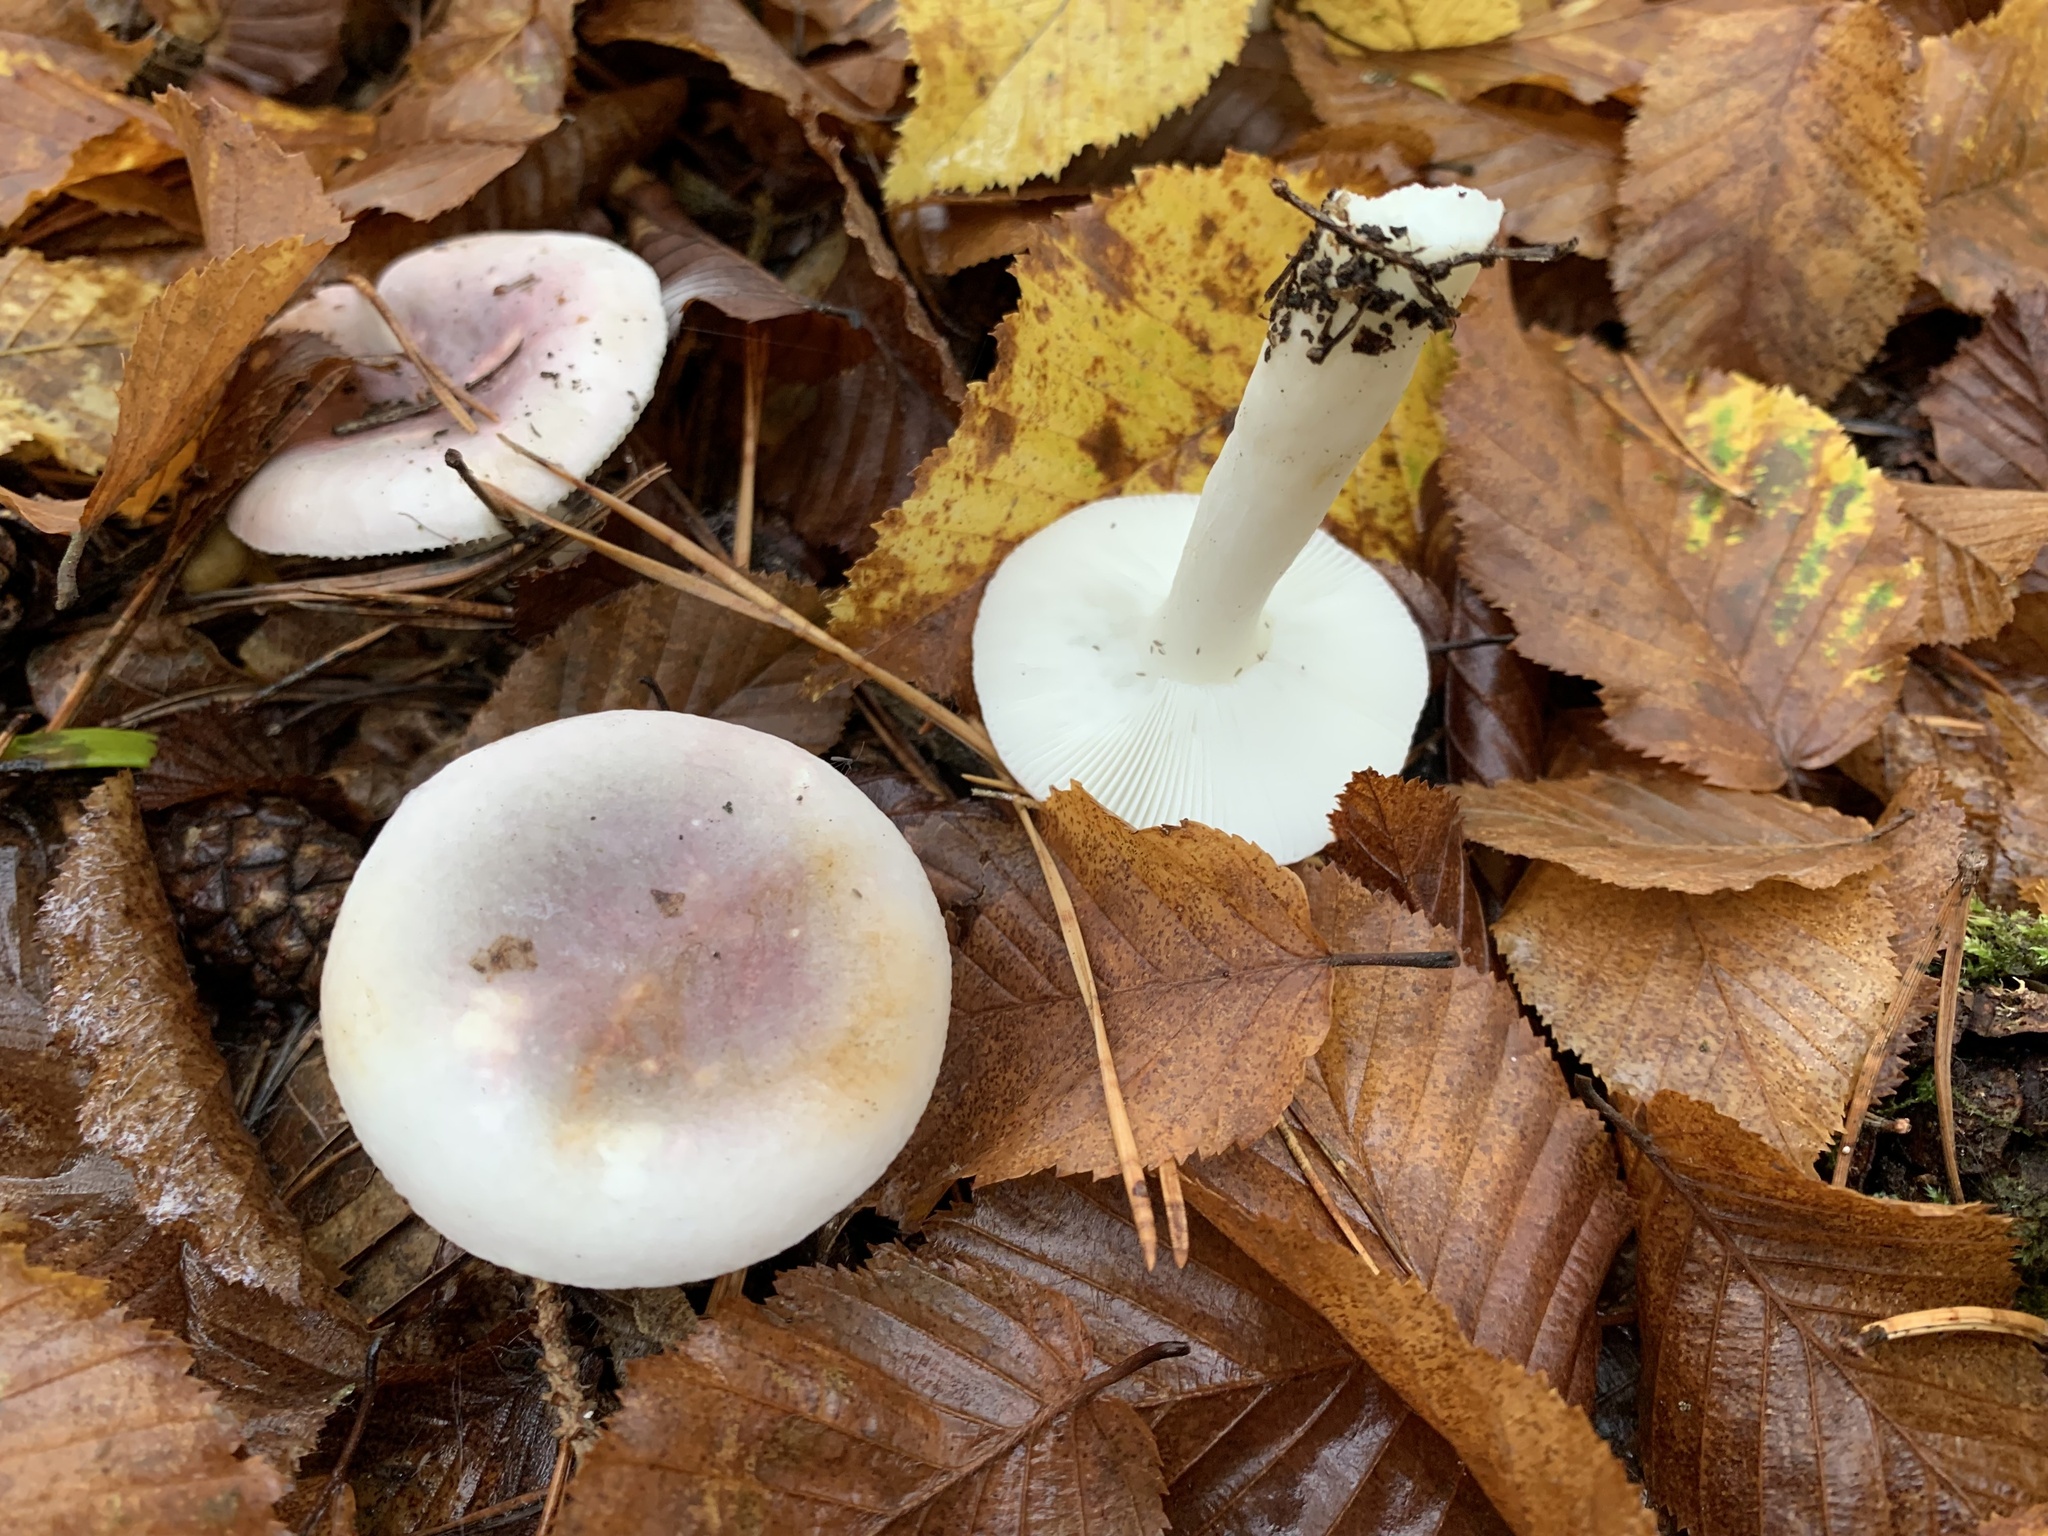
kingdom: Fungi
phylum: Basidiomycota
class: Agaricomycetes
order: Russulales
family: Russulaceae
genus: Russula
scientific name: Russula ionochlora
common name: Marbled brittlegill
